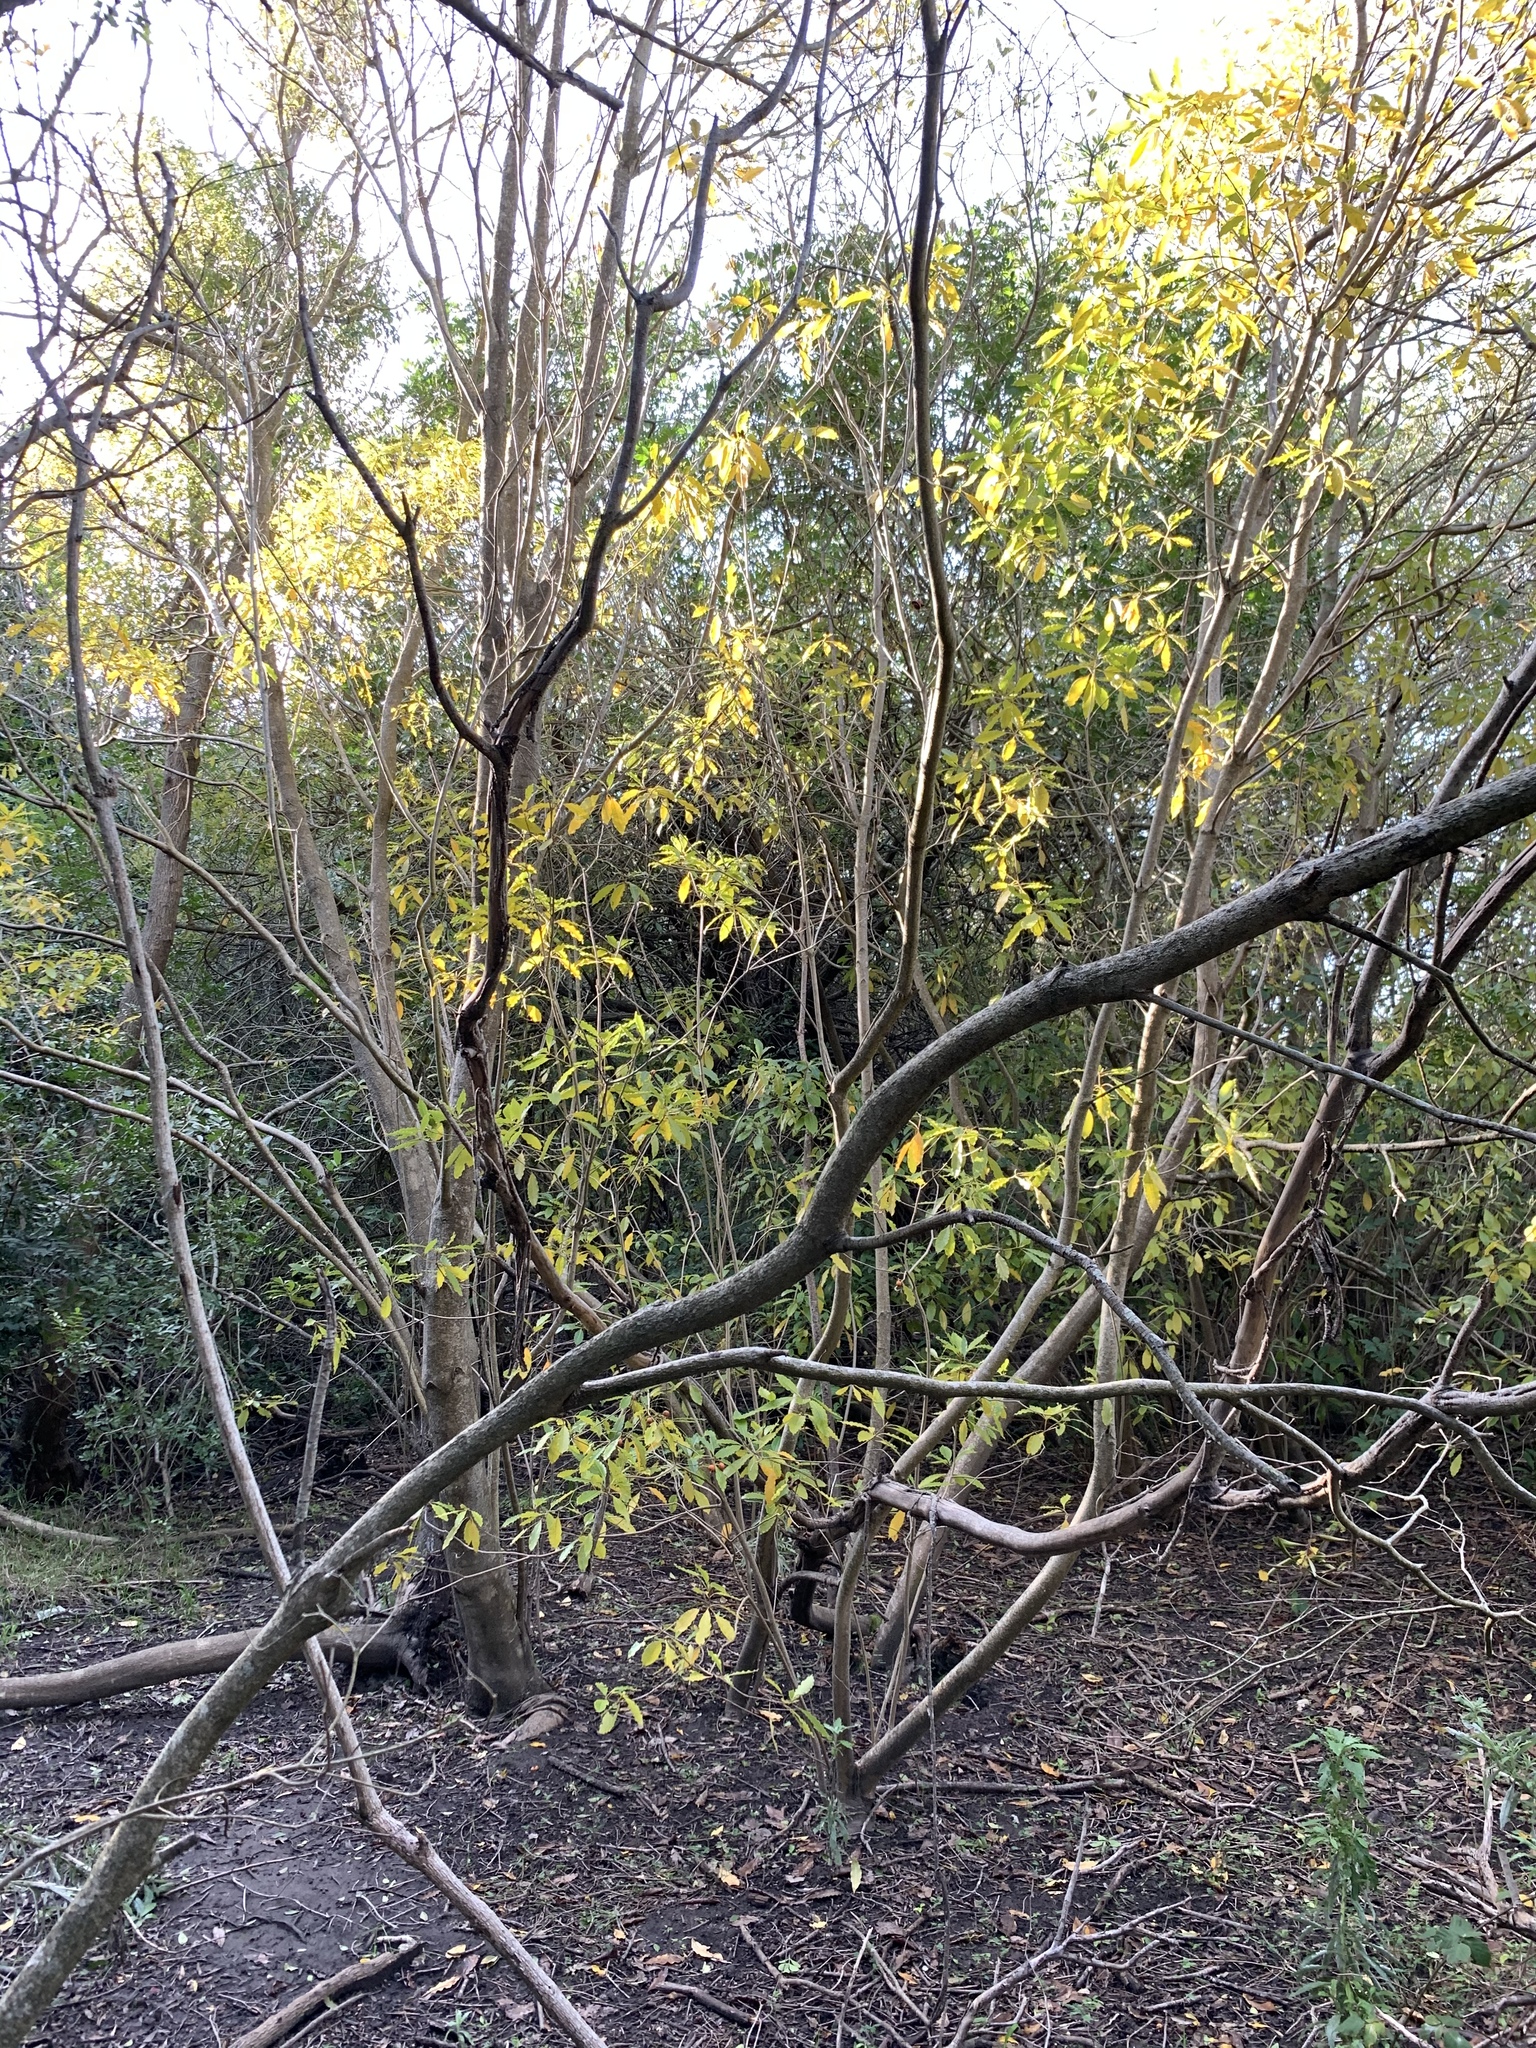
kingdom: Plantae
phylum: Tracheophyta
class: Magnoliopsida
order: Apiales
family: Pittosporaceae
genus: Pittosporum
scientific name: Pittosporum undulatum
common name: Australian cheesewood
